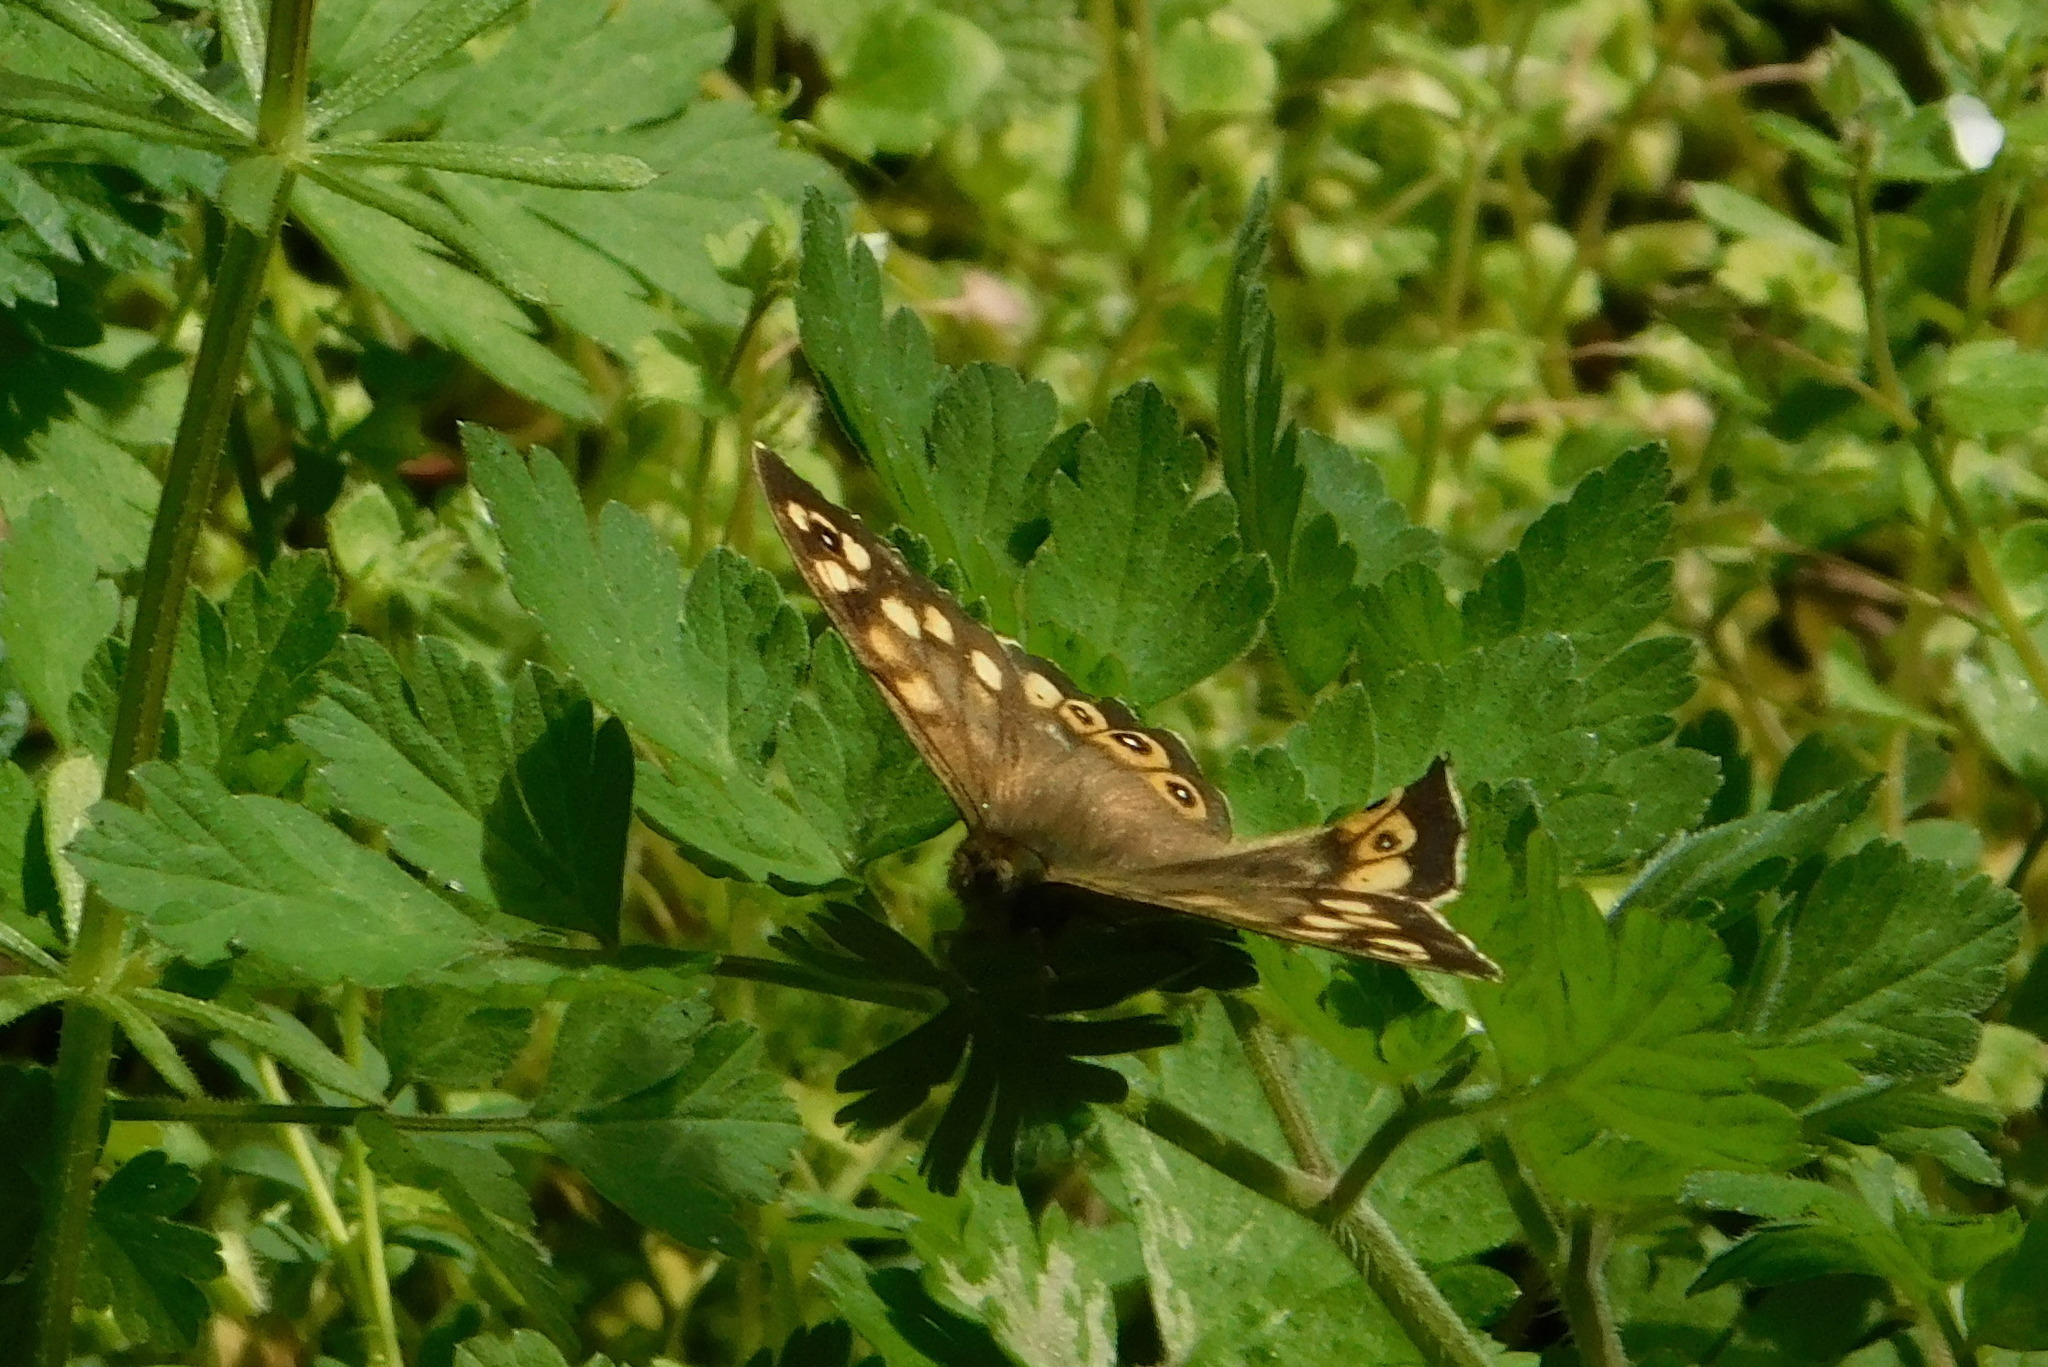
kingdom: Animalia
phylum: Arthropoda
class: Insecta
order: Lepidoptera
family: Nymphalidae
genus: Pararge
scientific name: Pararge aegeria
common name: Speckled wood
